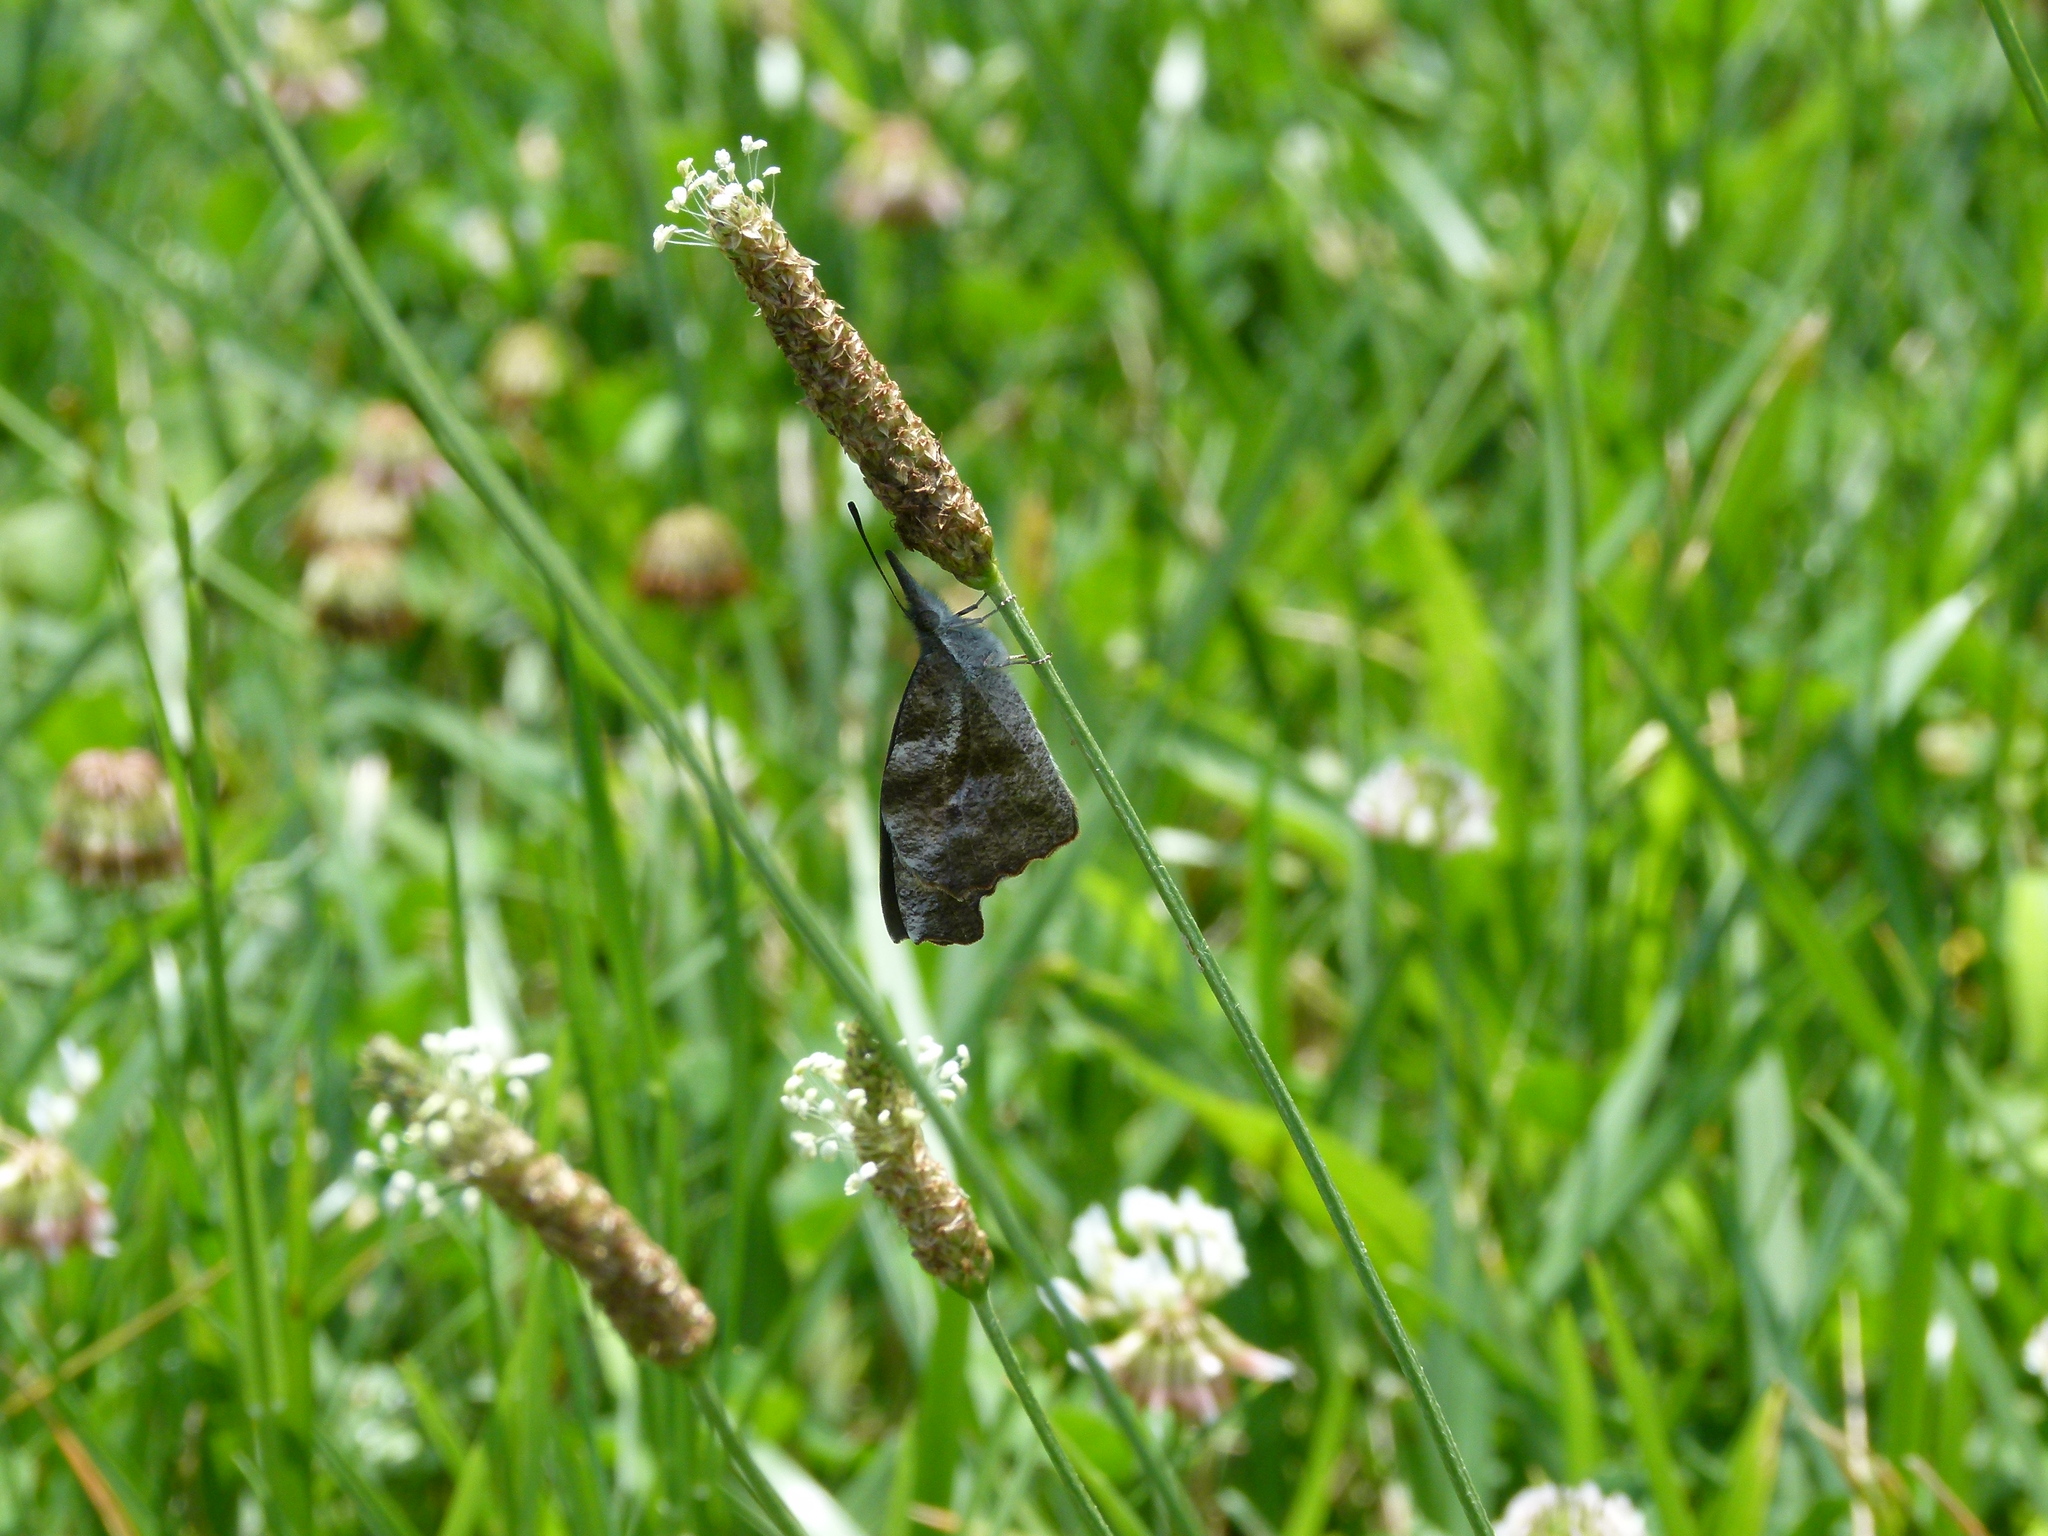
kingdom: Animalia
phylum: Arthropoda
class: Insecta
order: Lepidoptera
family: Nymphalidae
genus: Libytheana
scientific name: Libytheana carinenta
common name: American snout
